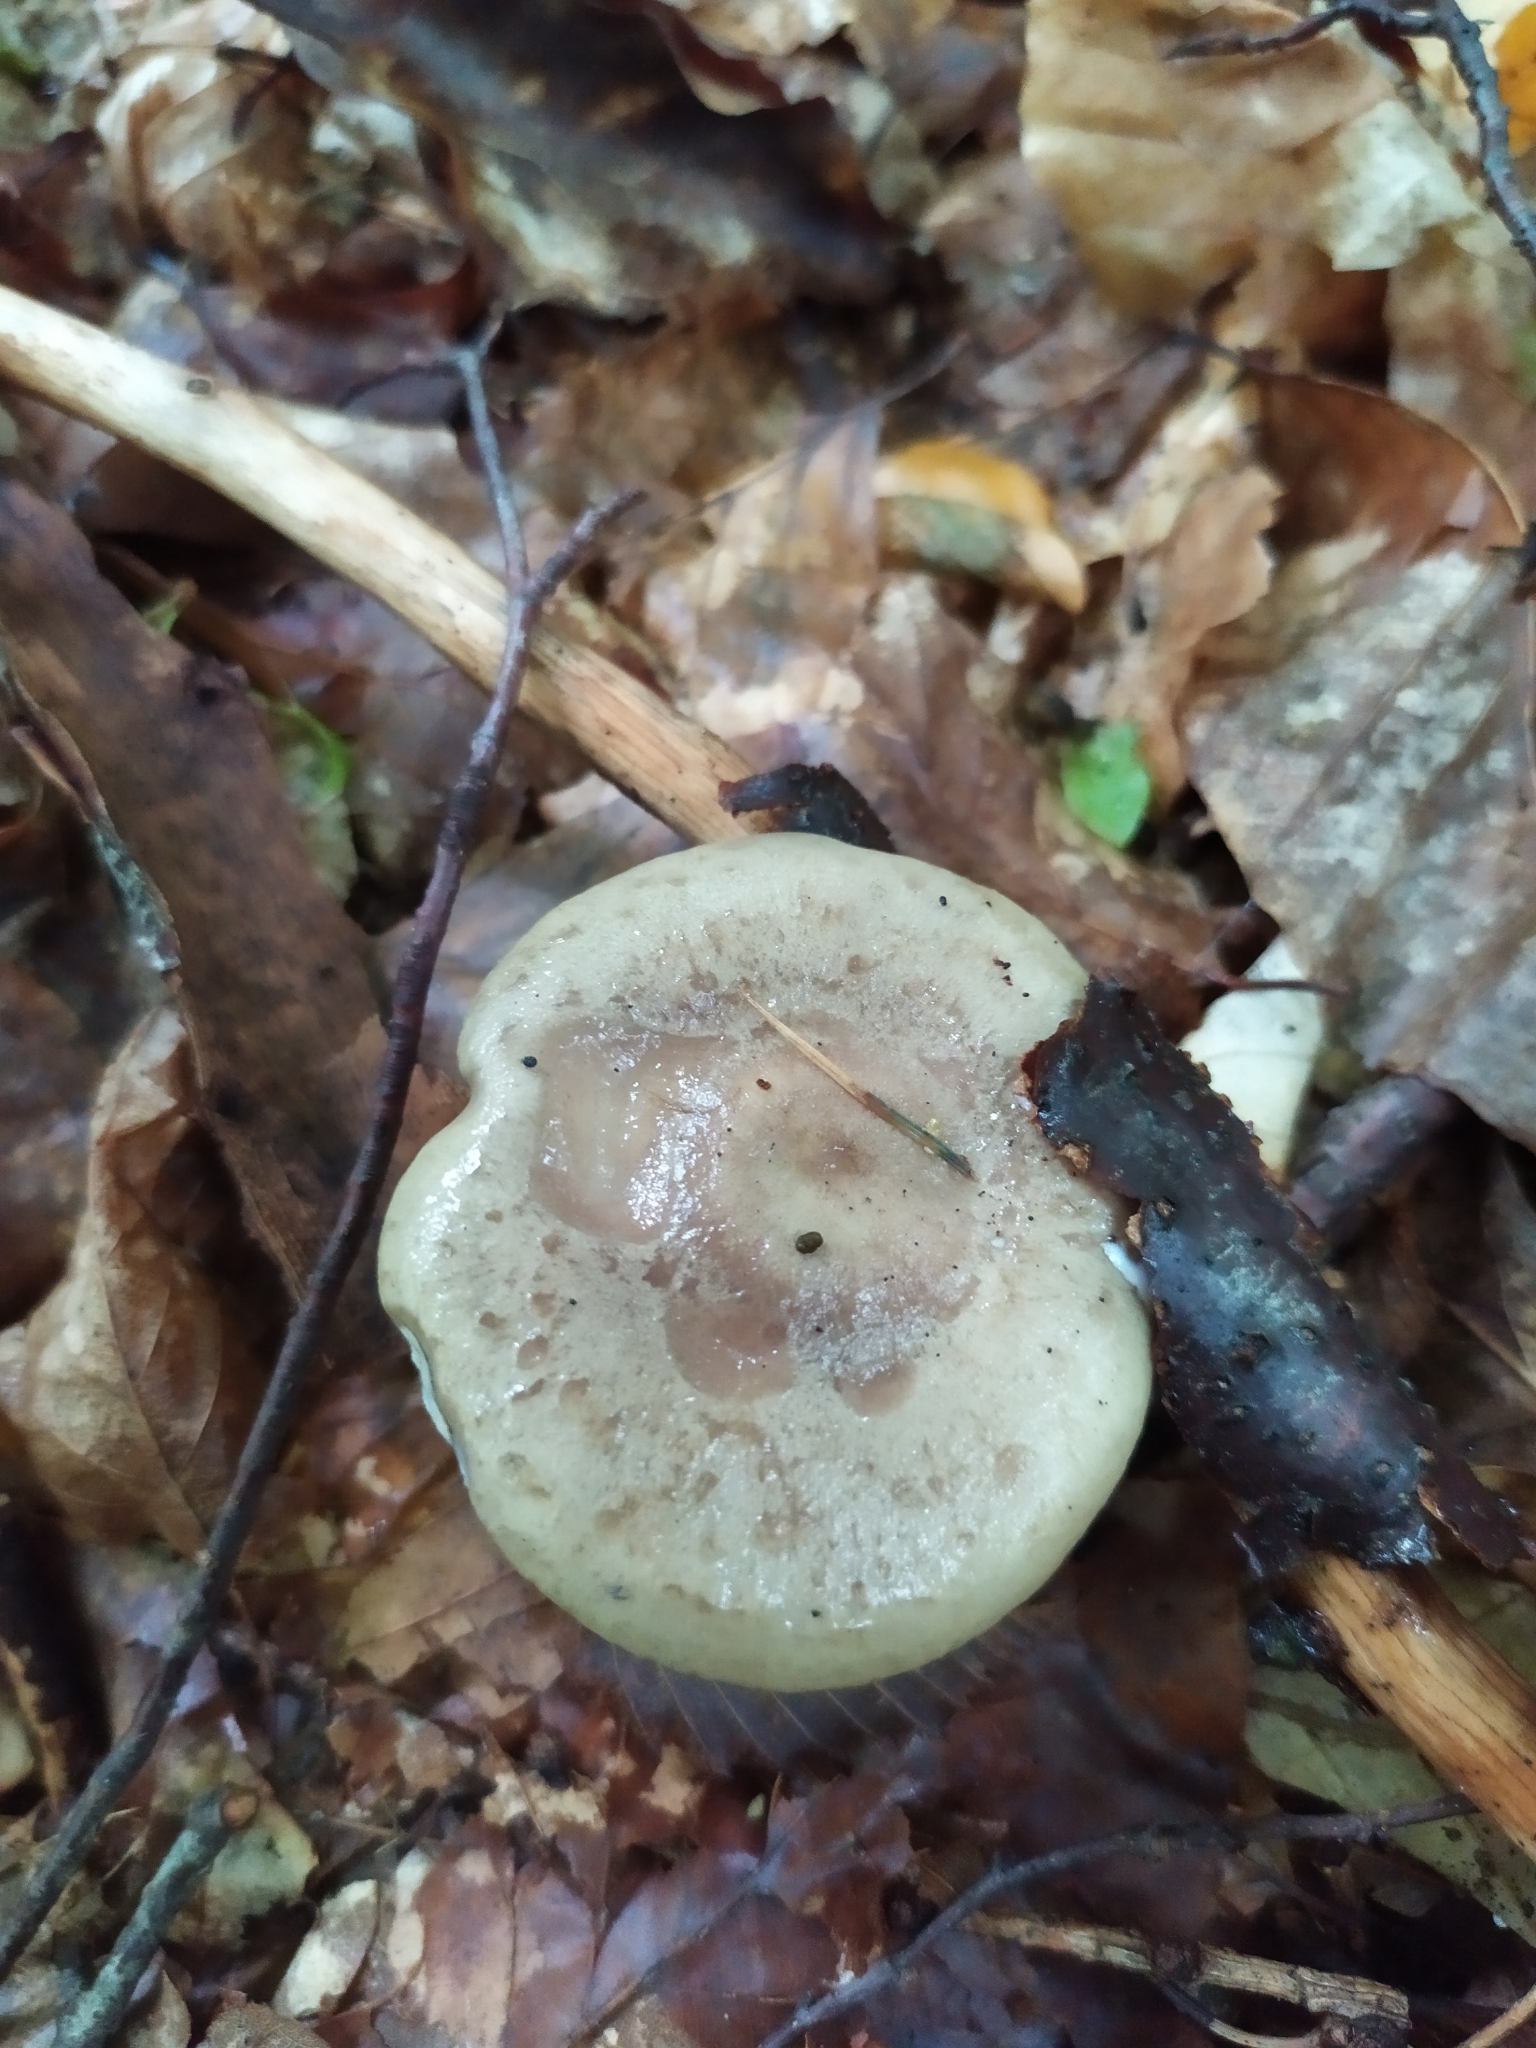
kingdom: Fungi
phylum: Basidiomycota
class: Agaricomycetes
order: Russulales
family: Russulaceae
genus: Lactarius
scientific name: Lactarius blennius
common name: Beech milkcap
